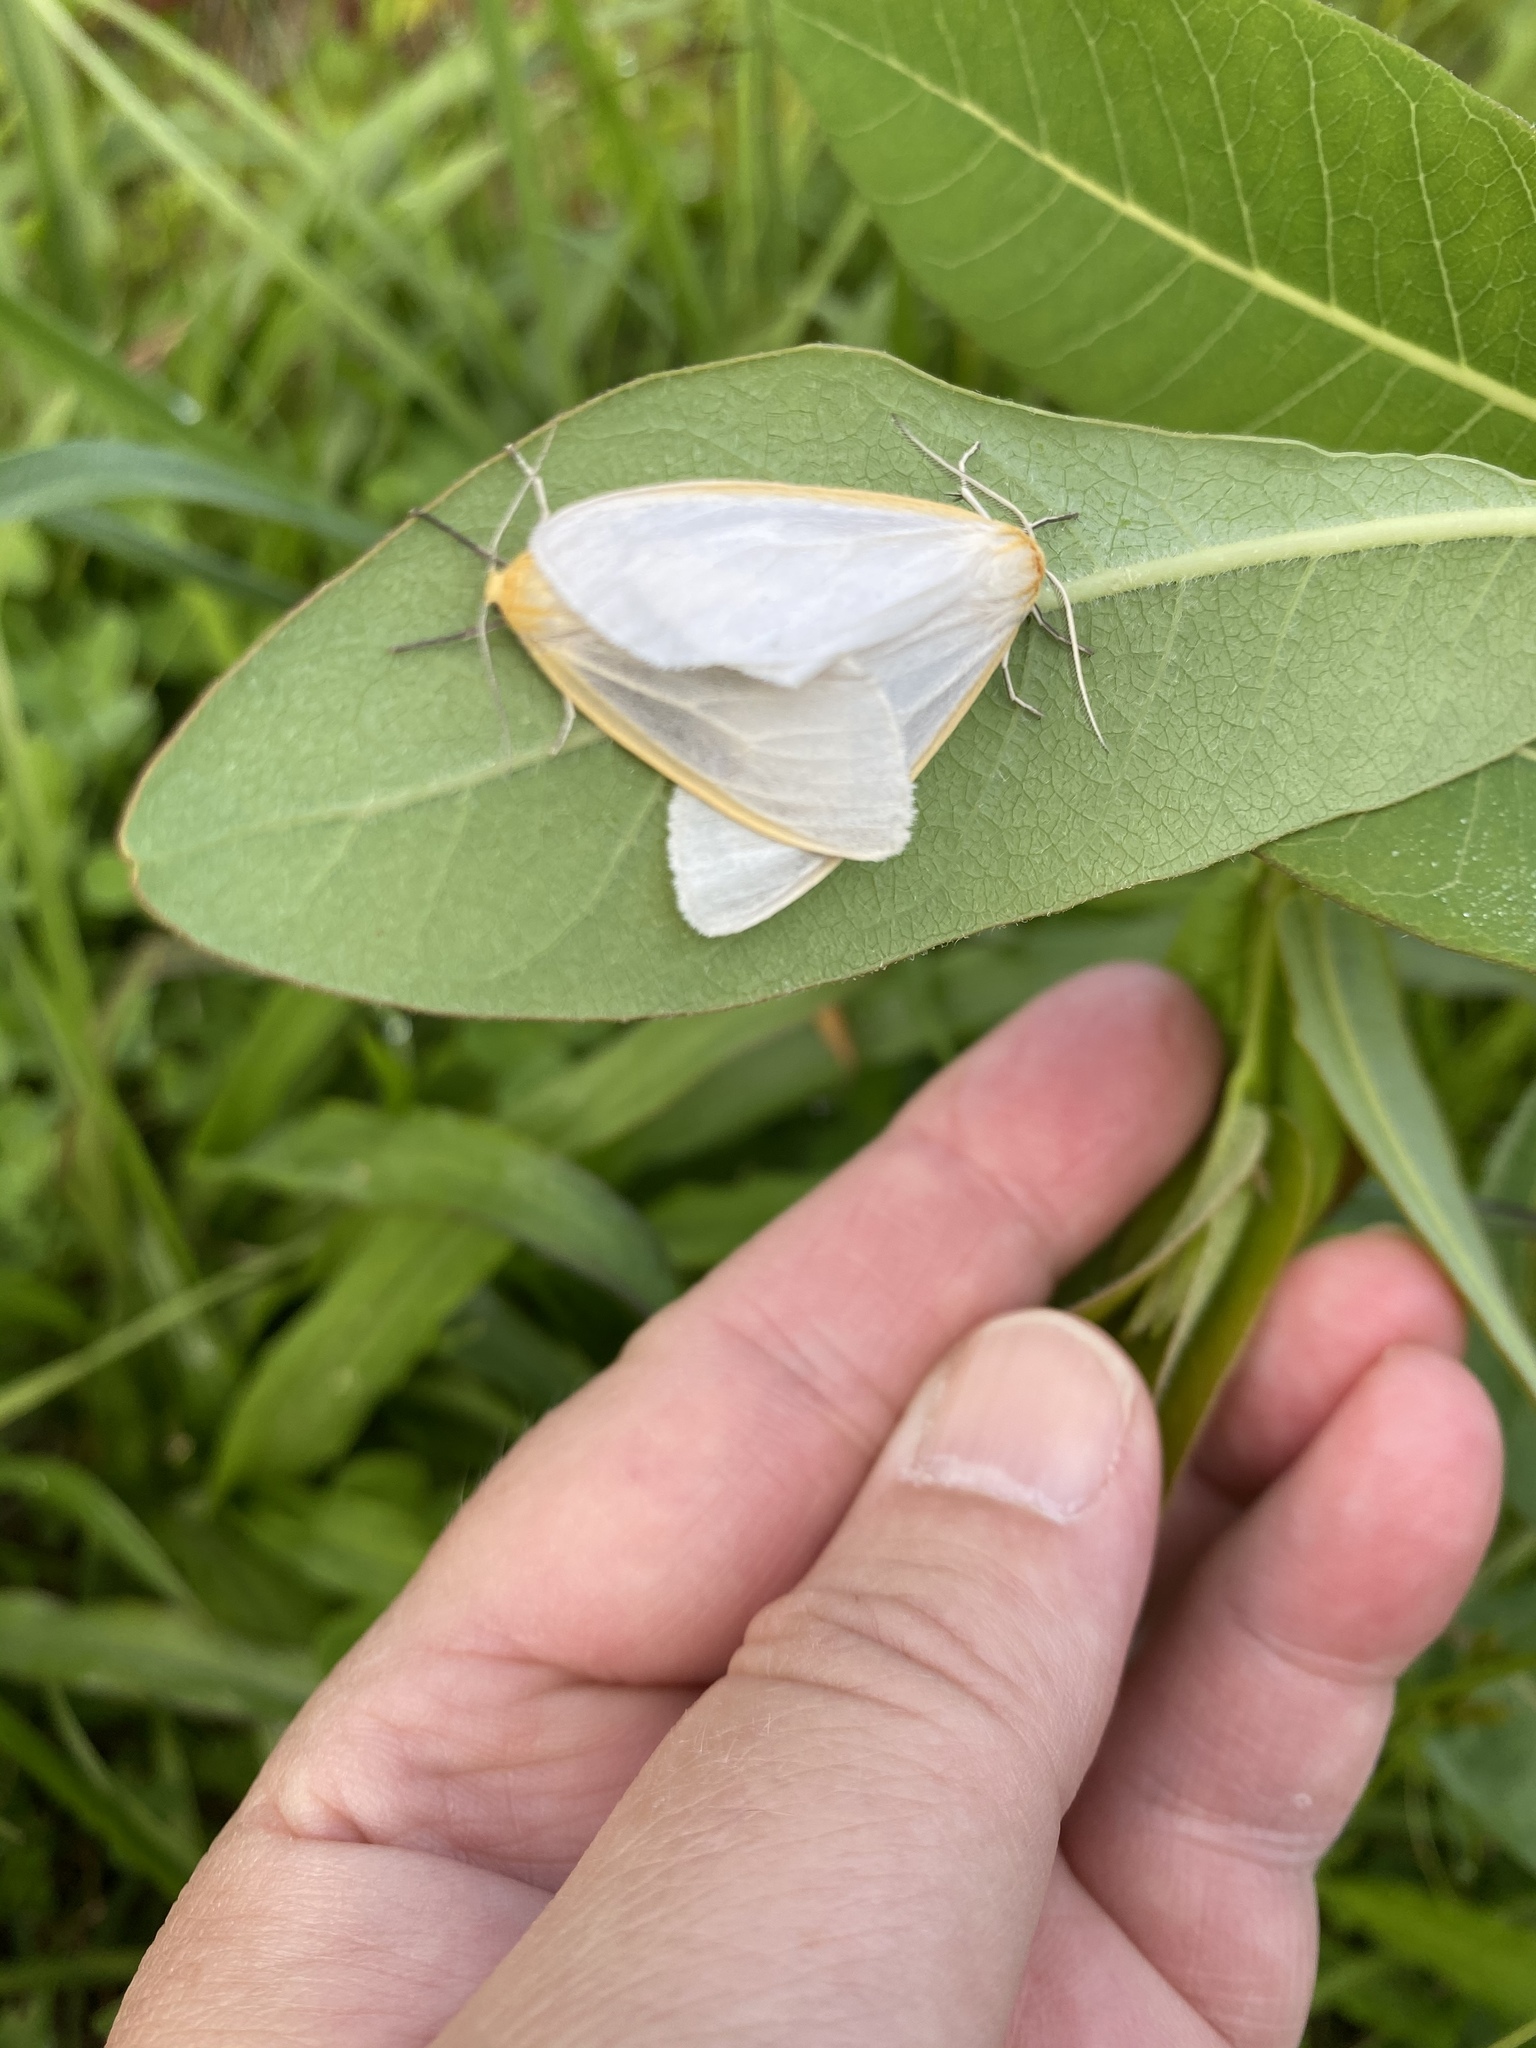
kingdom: Animalia
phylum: Arthropoda
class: Insecta
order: Lepidoptera
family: Erebidae
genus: Cycnia
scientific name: Cycnia tenera
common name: Delicate cycnia moth
